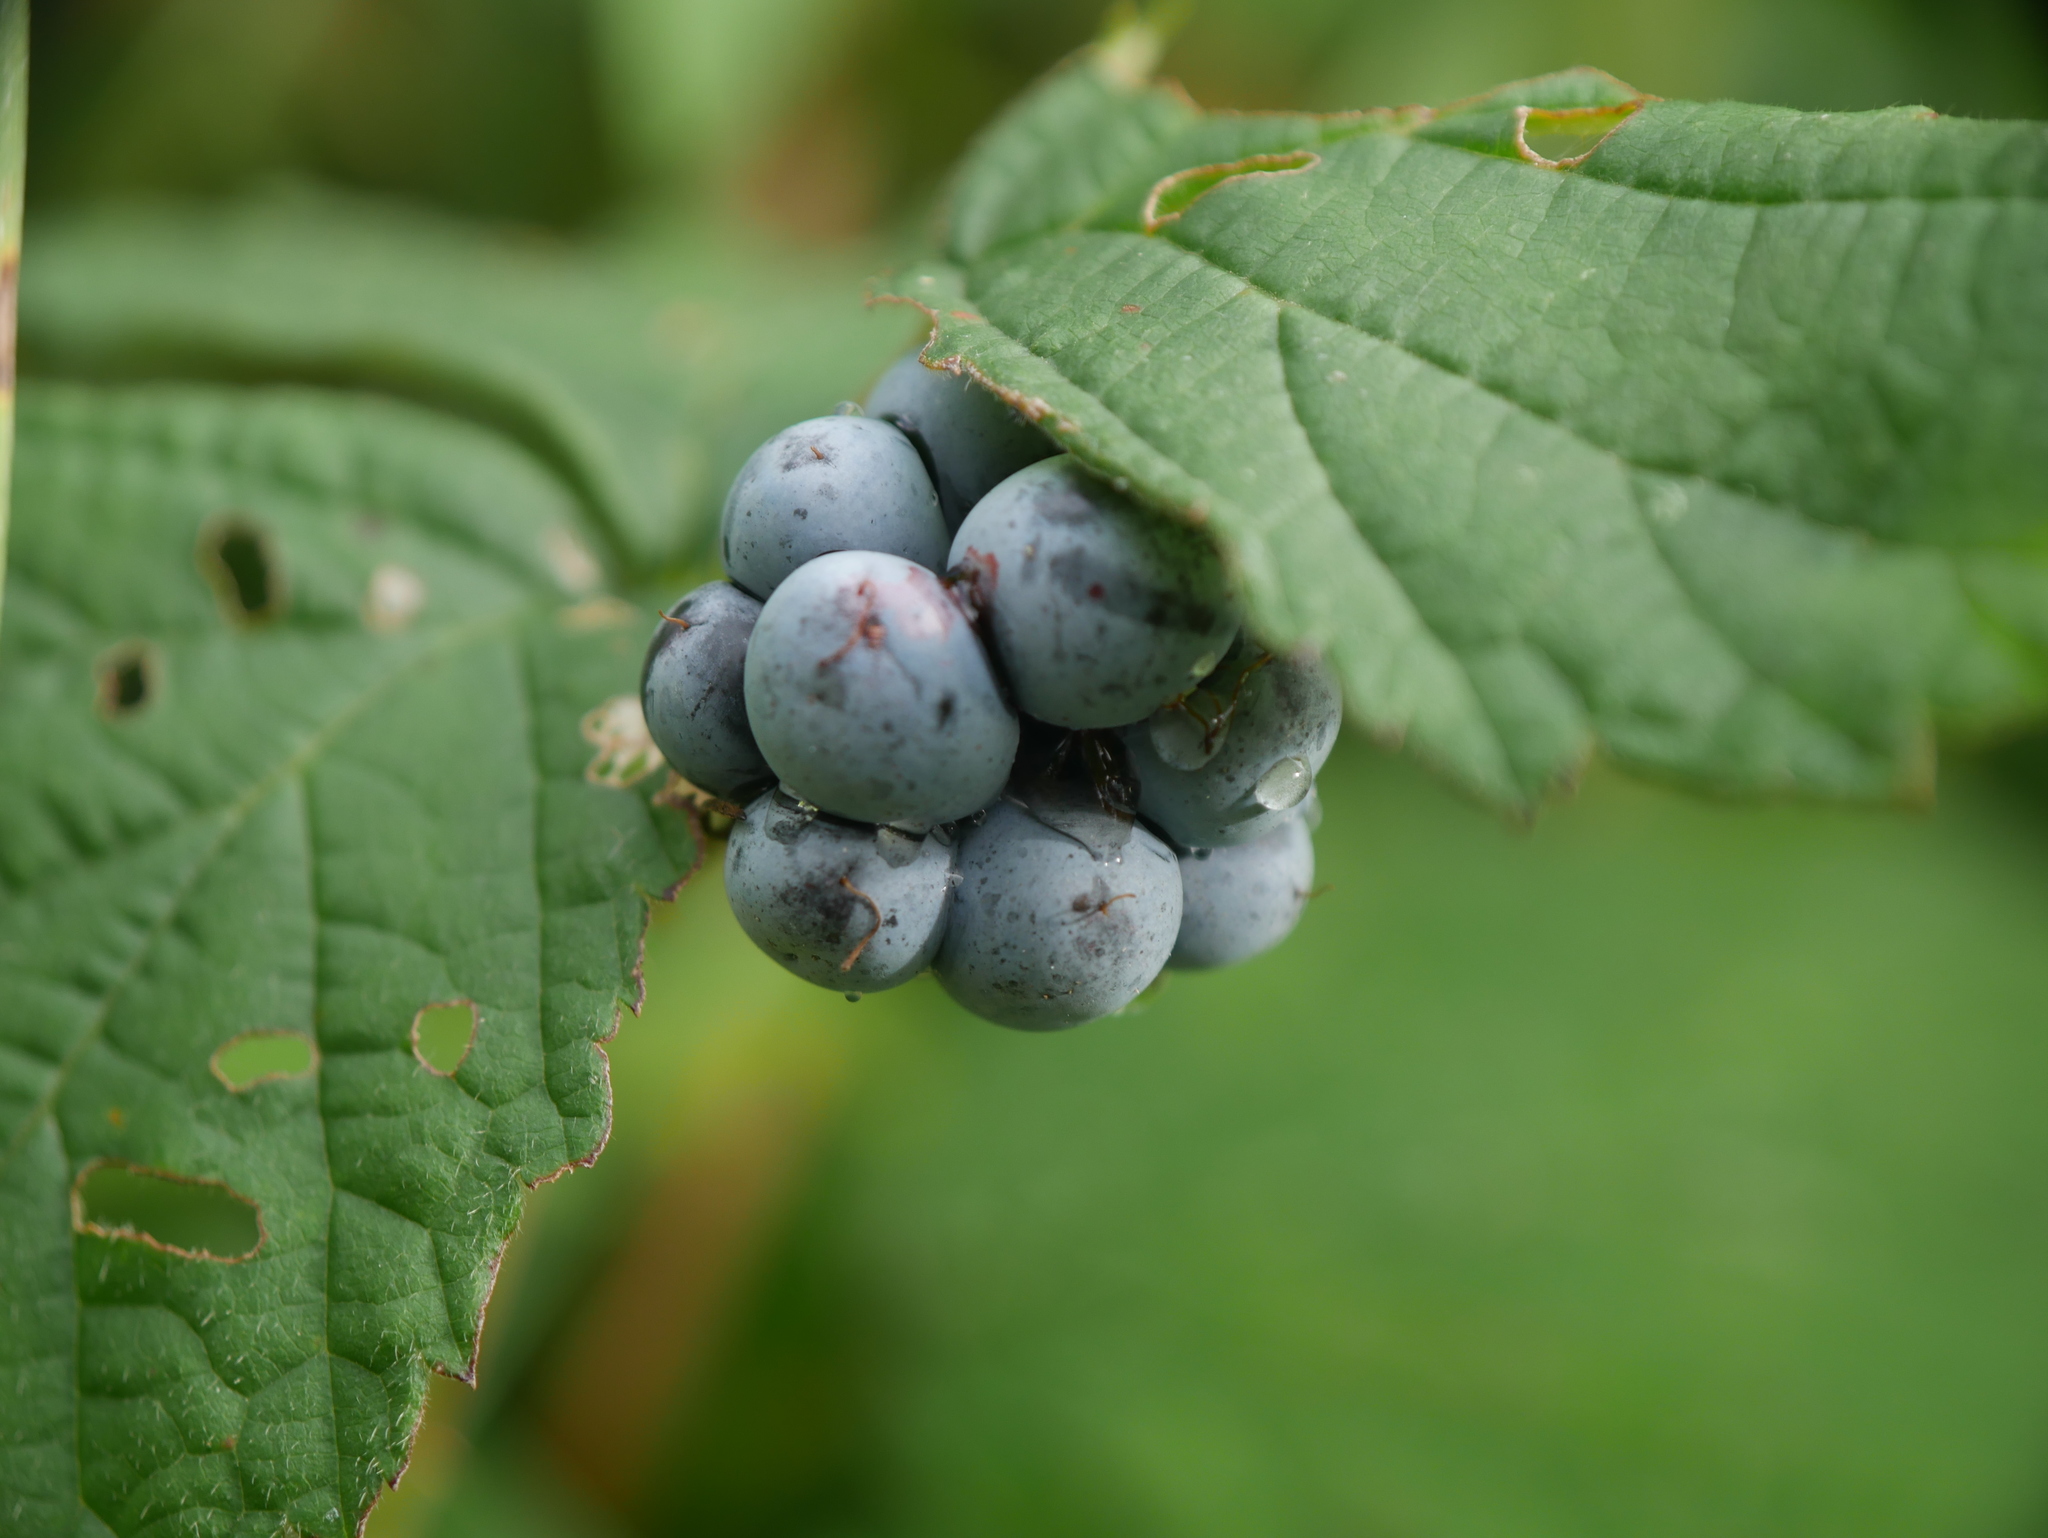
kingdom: Plantae
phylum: Tracheophyta
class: Magnoliopsida
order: Rosales
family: Rosaceae
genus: Rubus
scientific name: Rubus caesius
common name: Dewberry
